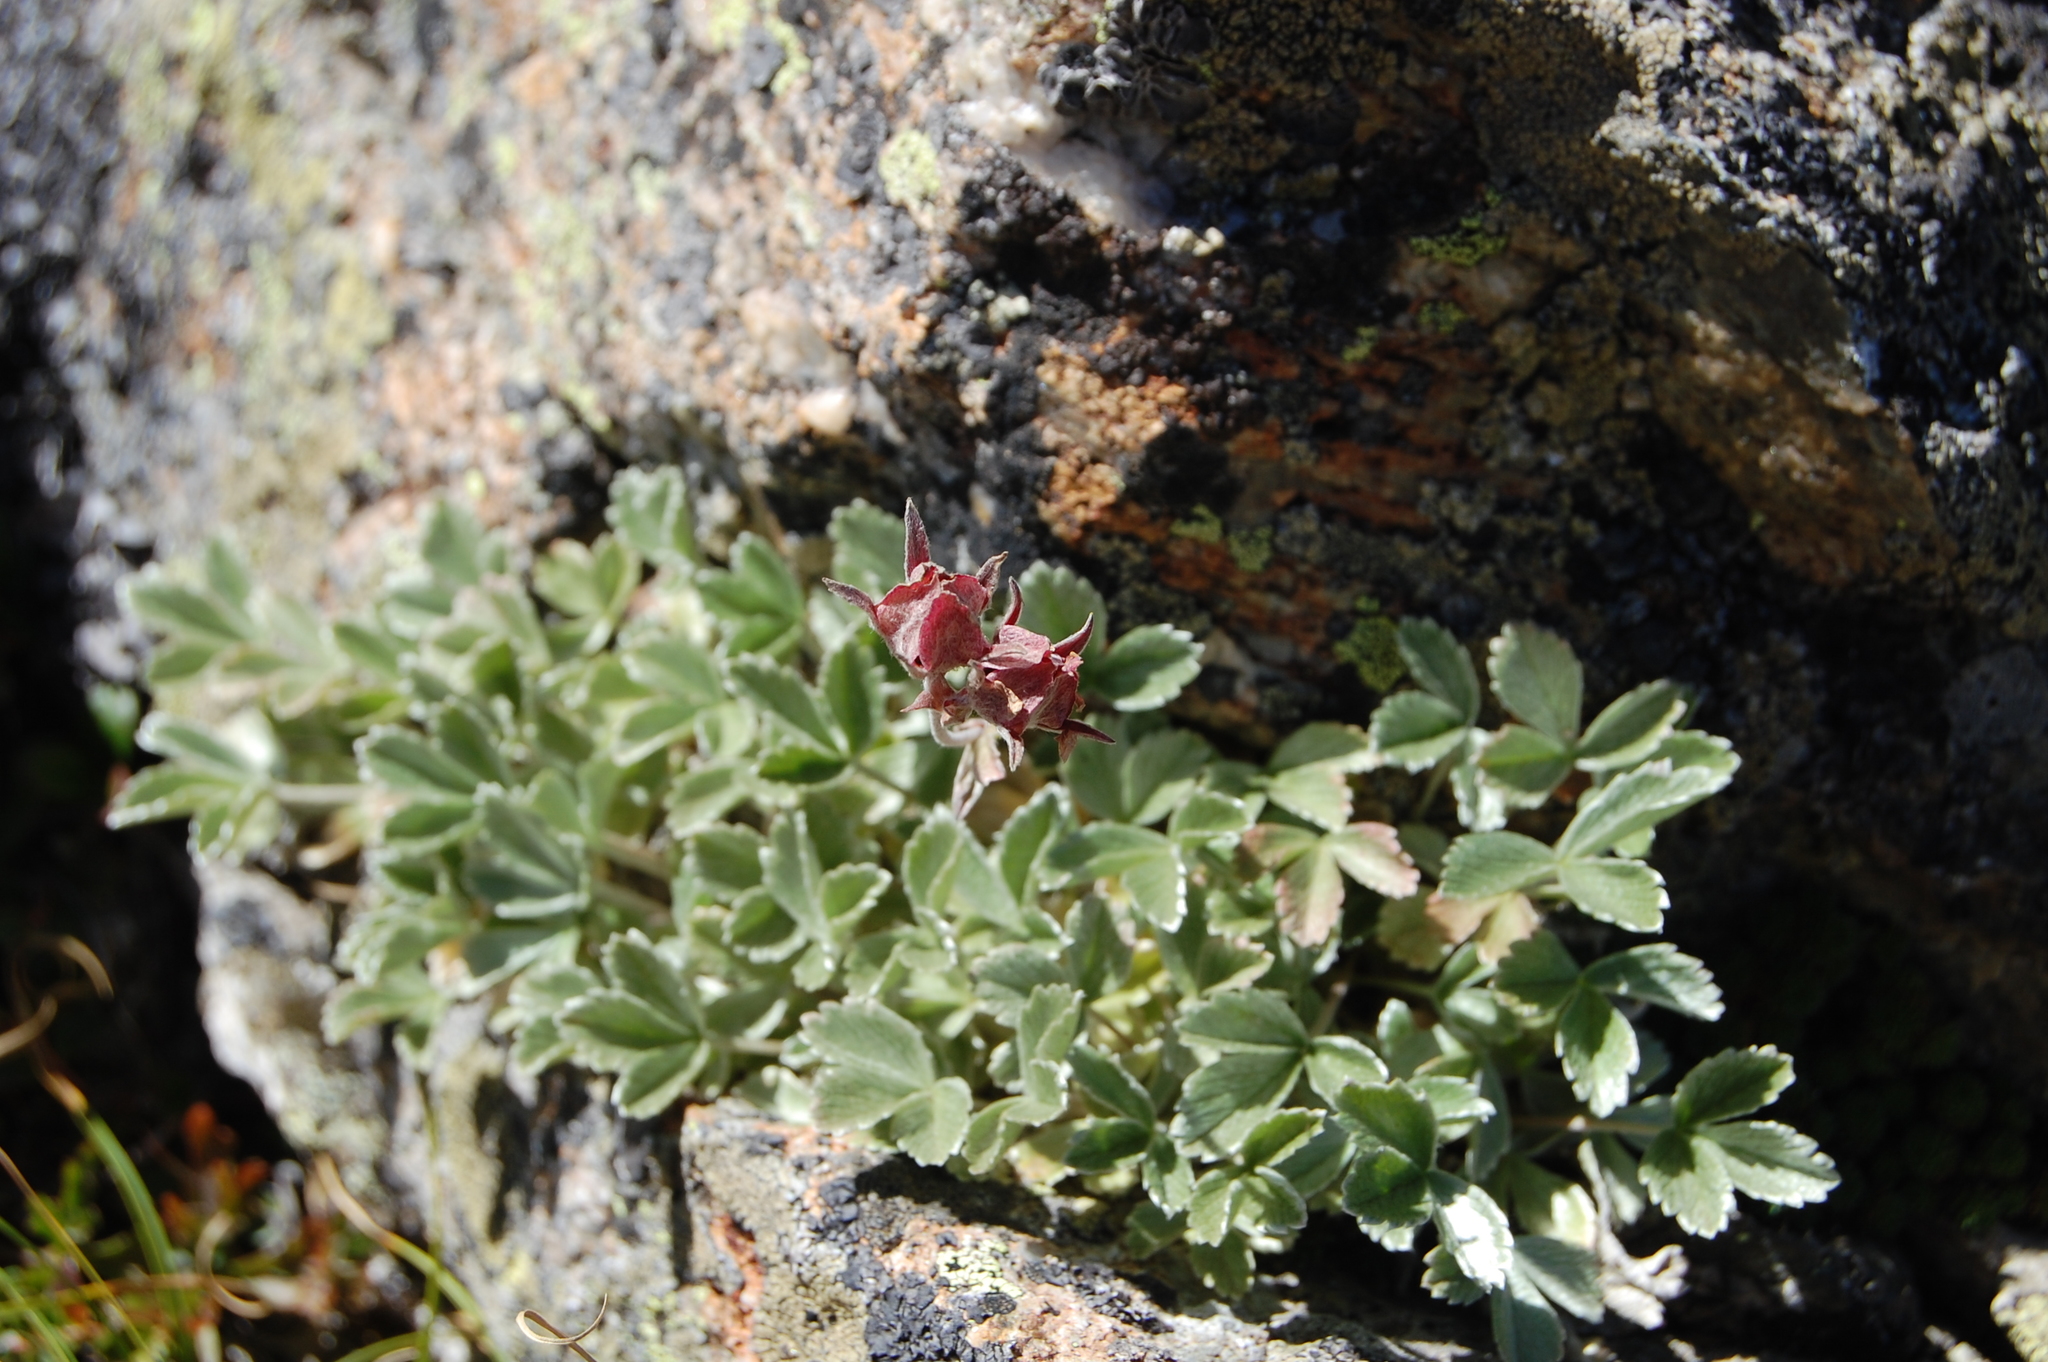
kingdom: Plantae
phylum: Tracheophyta
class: Magnoliopsida
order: Rosales
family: Rosaceae
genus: Potentilla
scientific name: Potentilla divina
